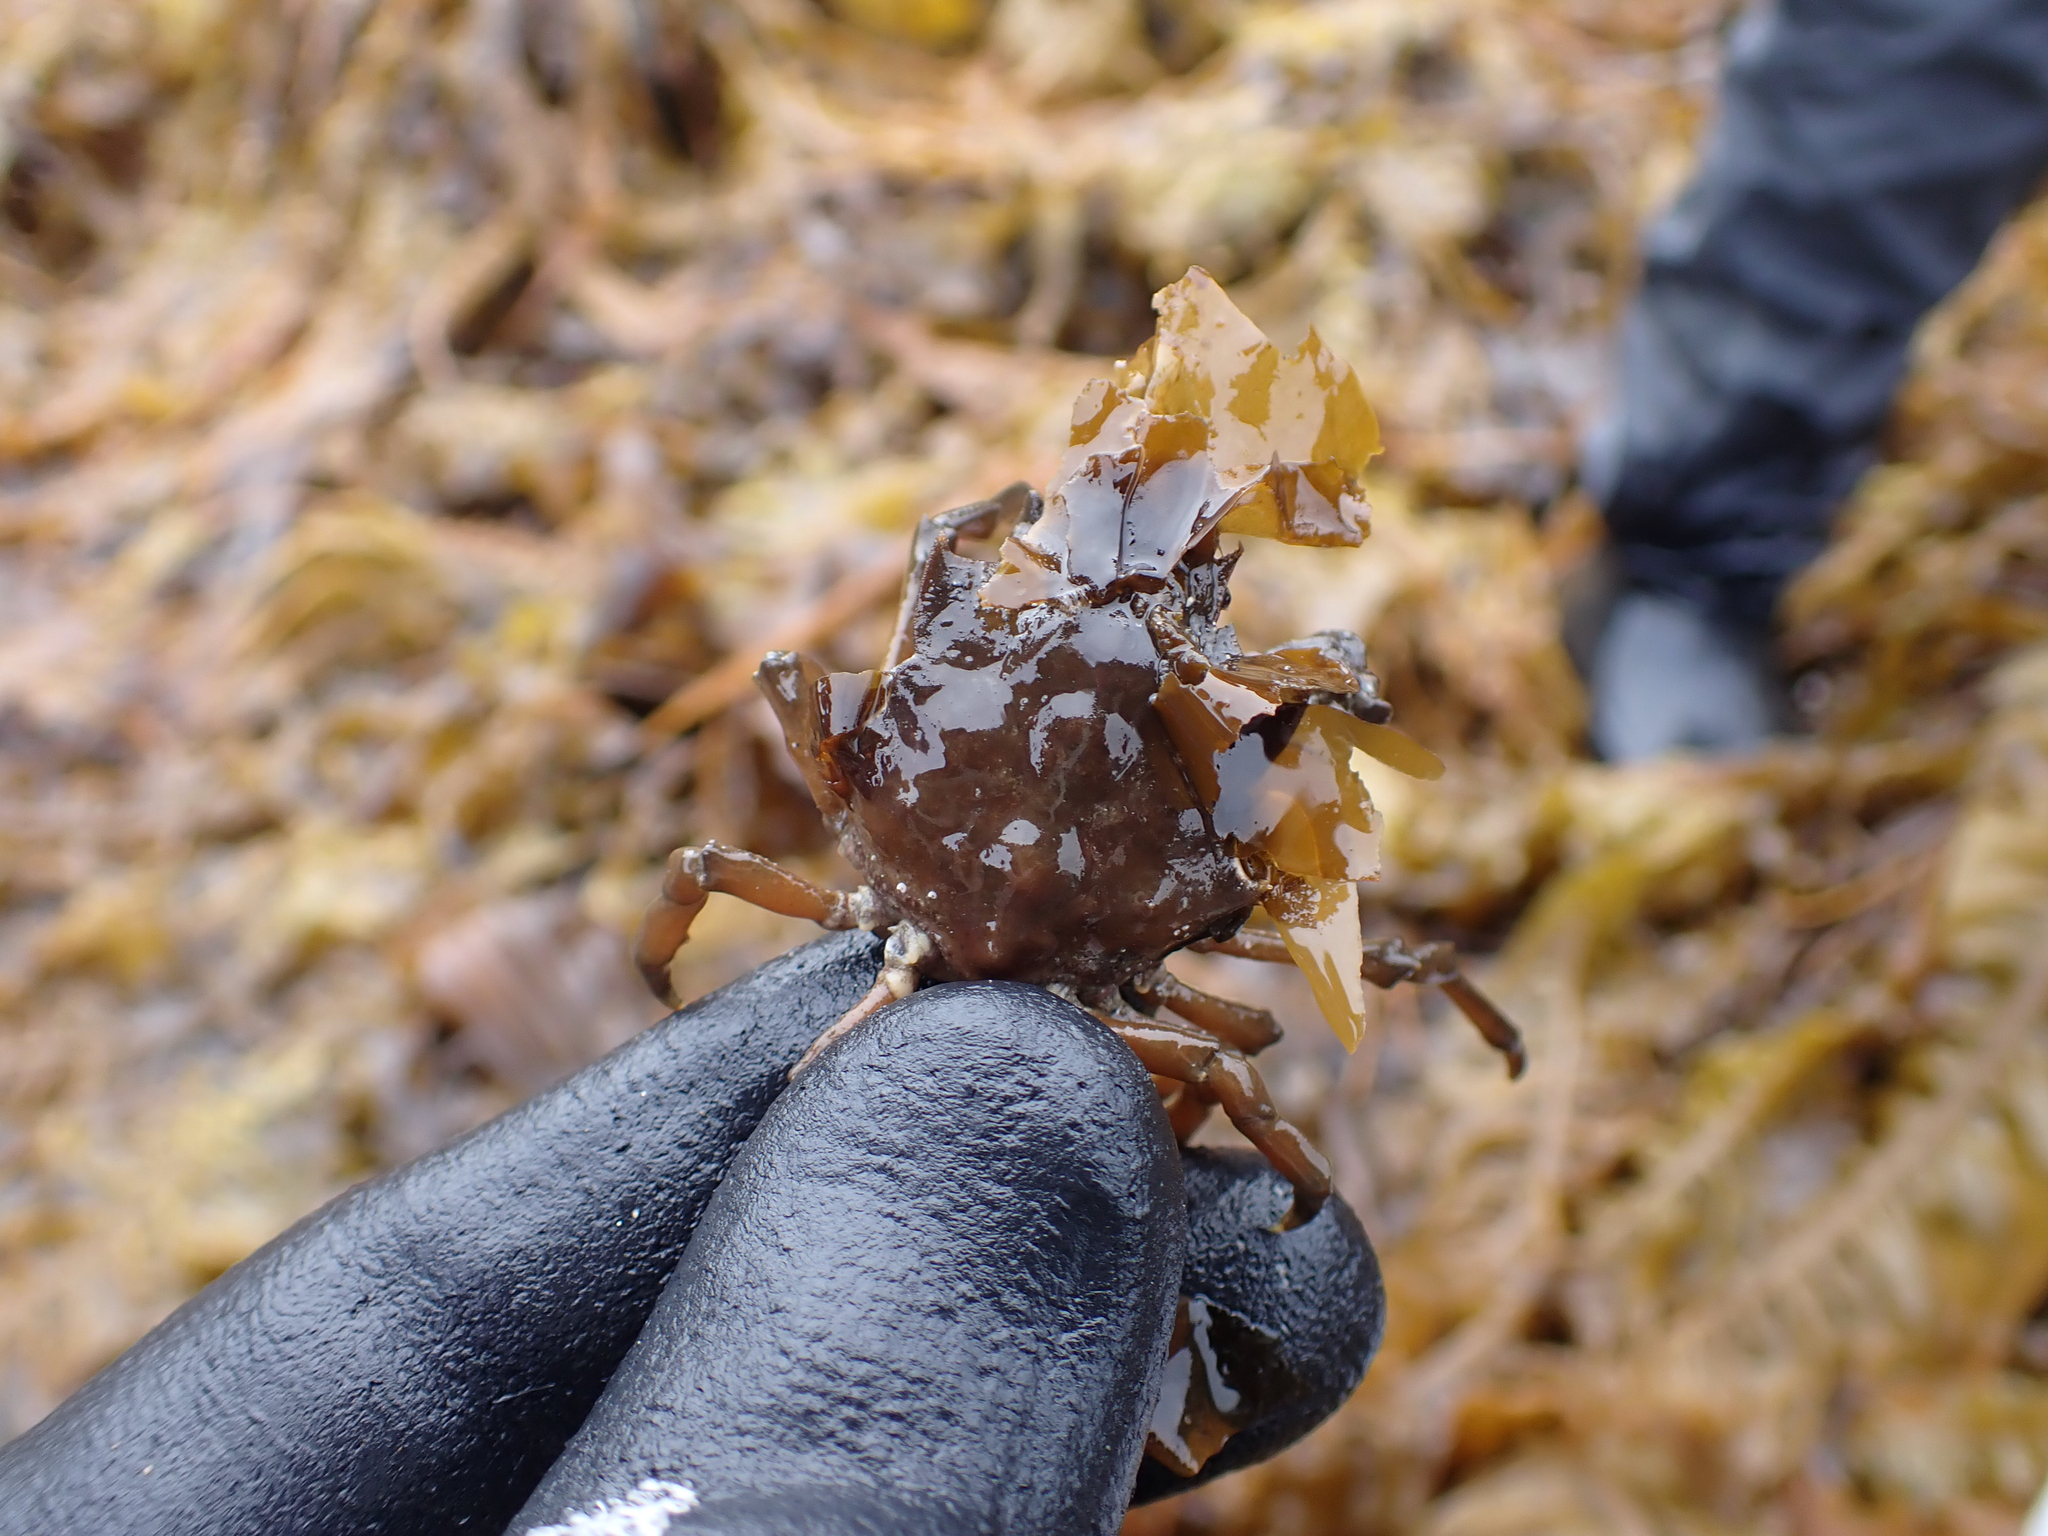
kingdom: Animalia
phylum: Arthropoda
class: Malacostraca
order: Decapoda
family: Epialtidae
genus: Pugettia
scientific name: Pugettia gracilis
